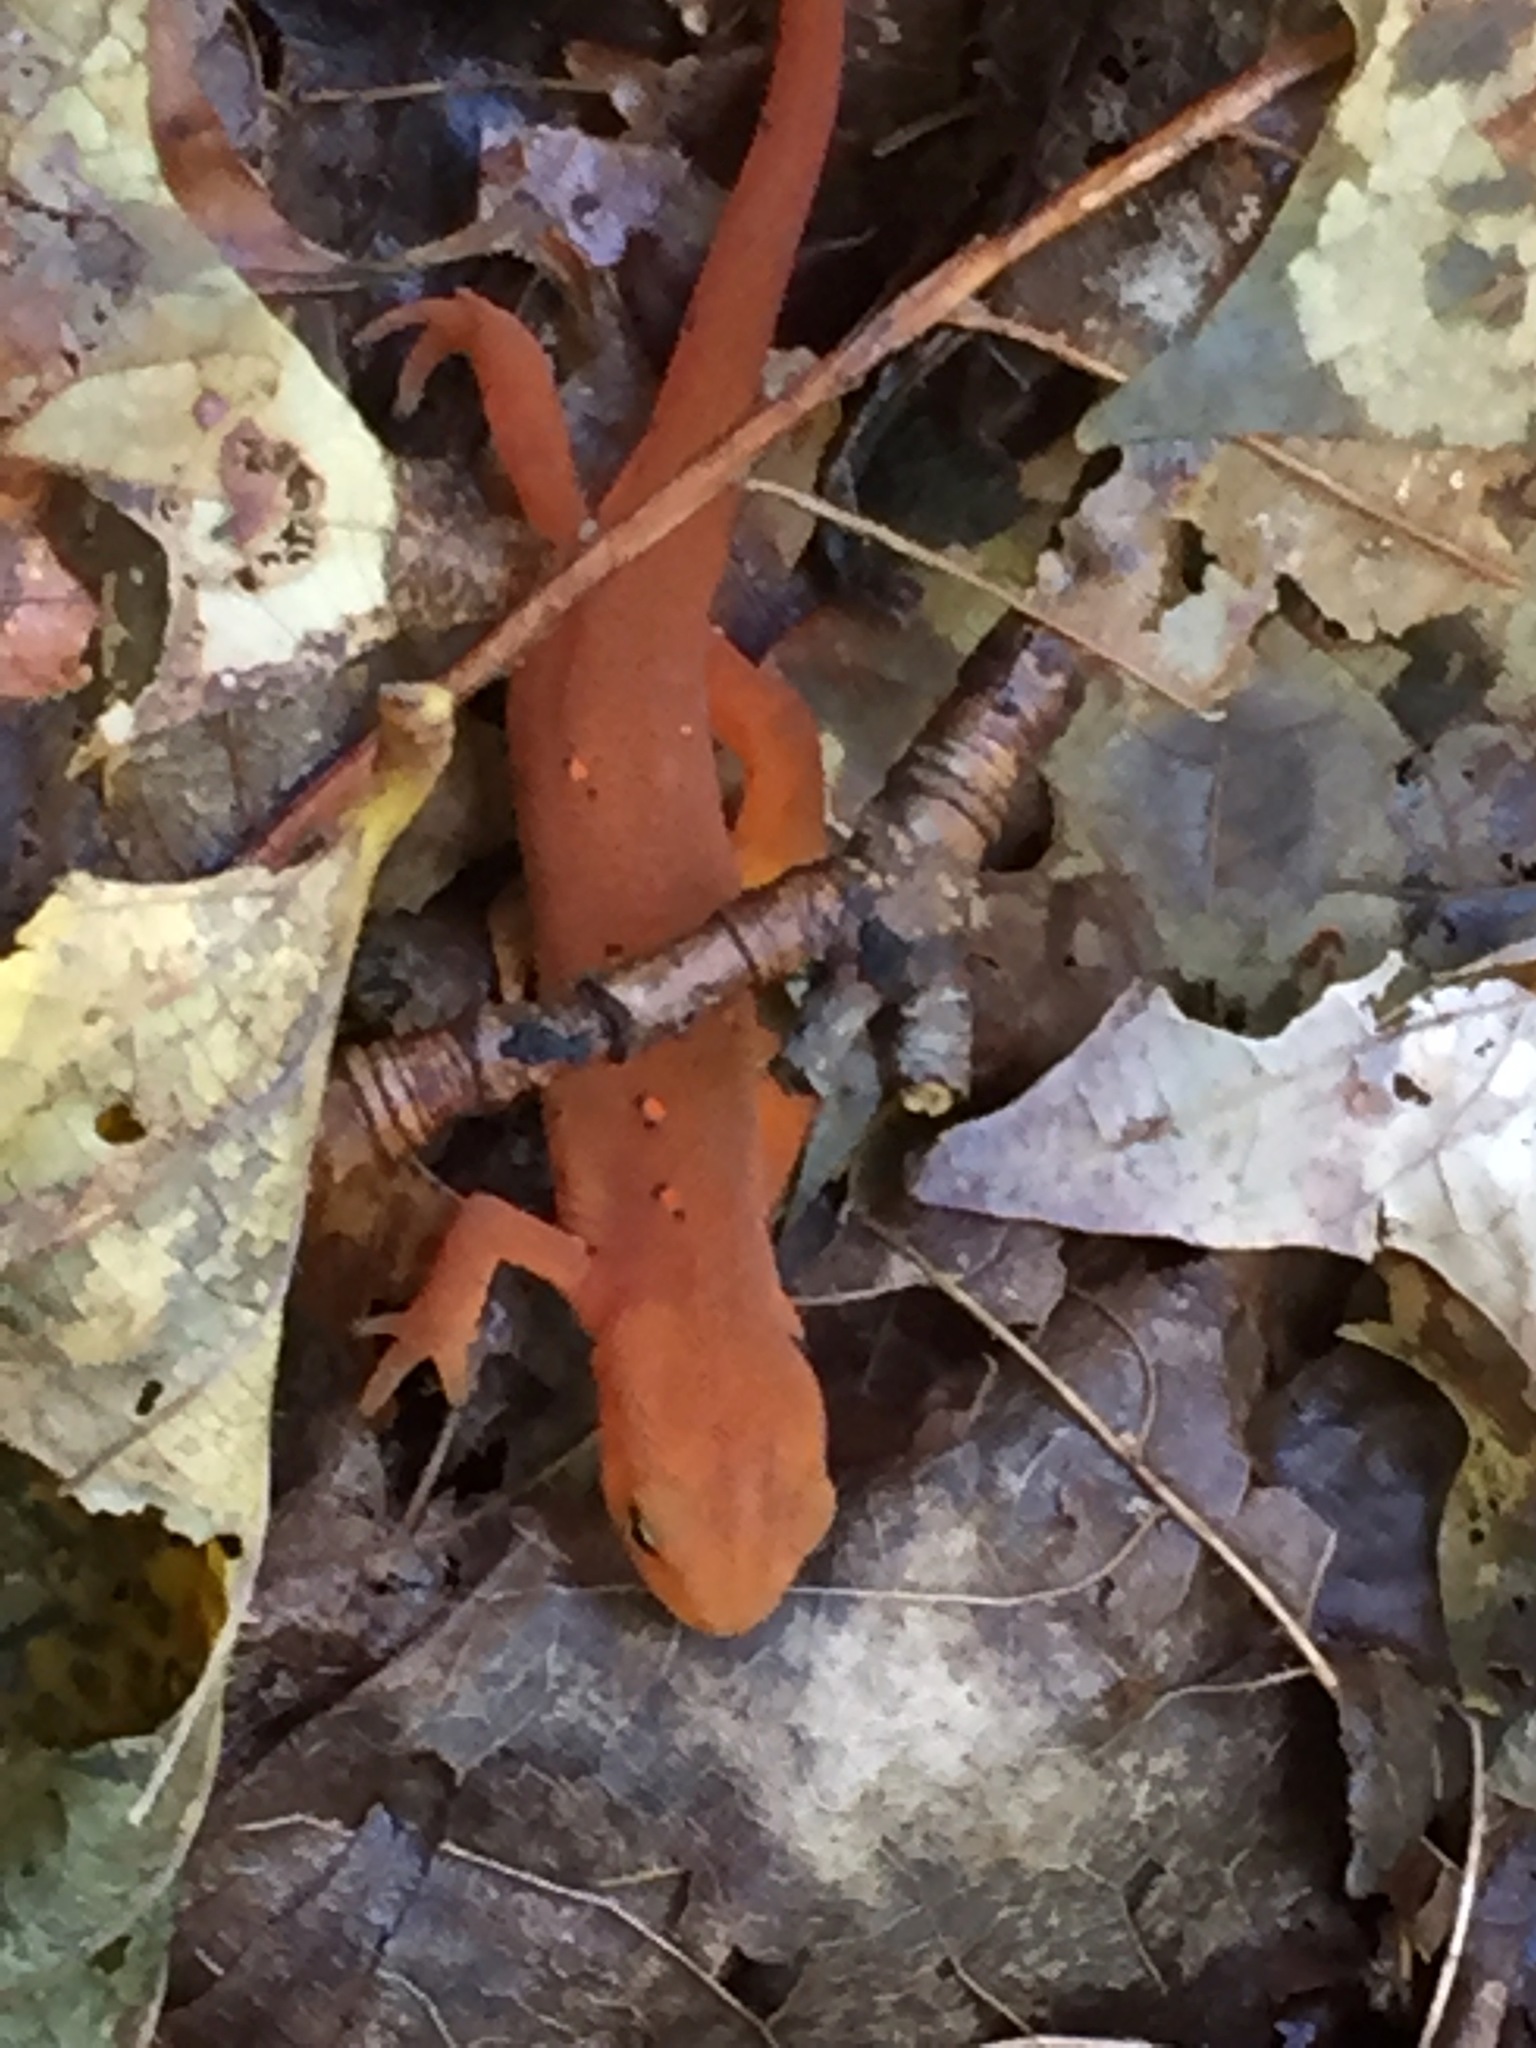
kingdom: Animalia
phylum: Chordata
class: Amphibia
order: Caudata
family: Salamandridae
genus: Notophthalmus
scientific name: Notophthalmus viridescens
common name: Eastern newt
